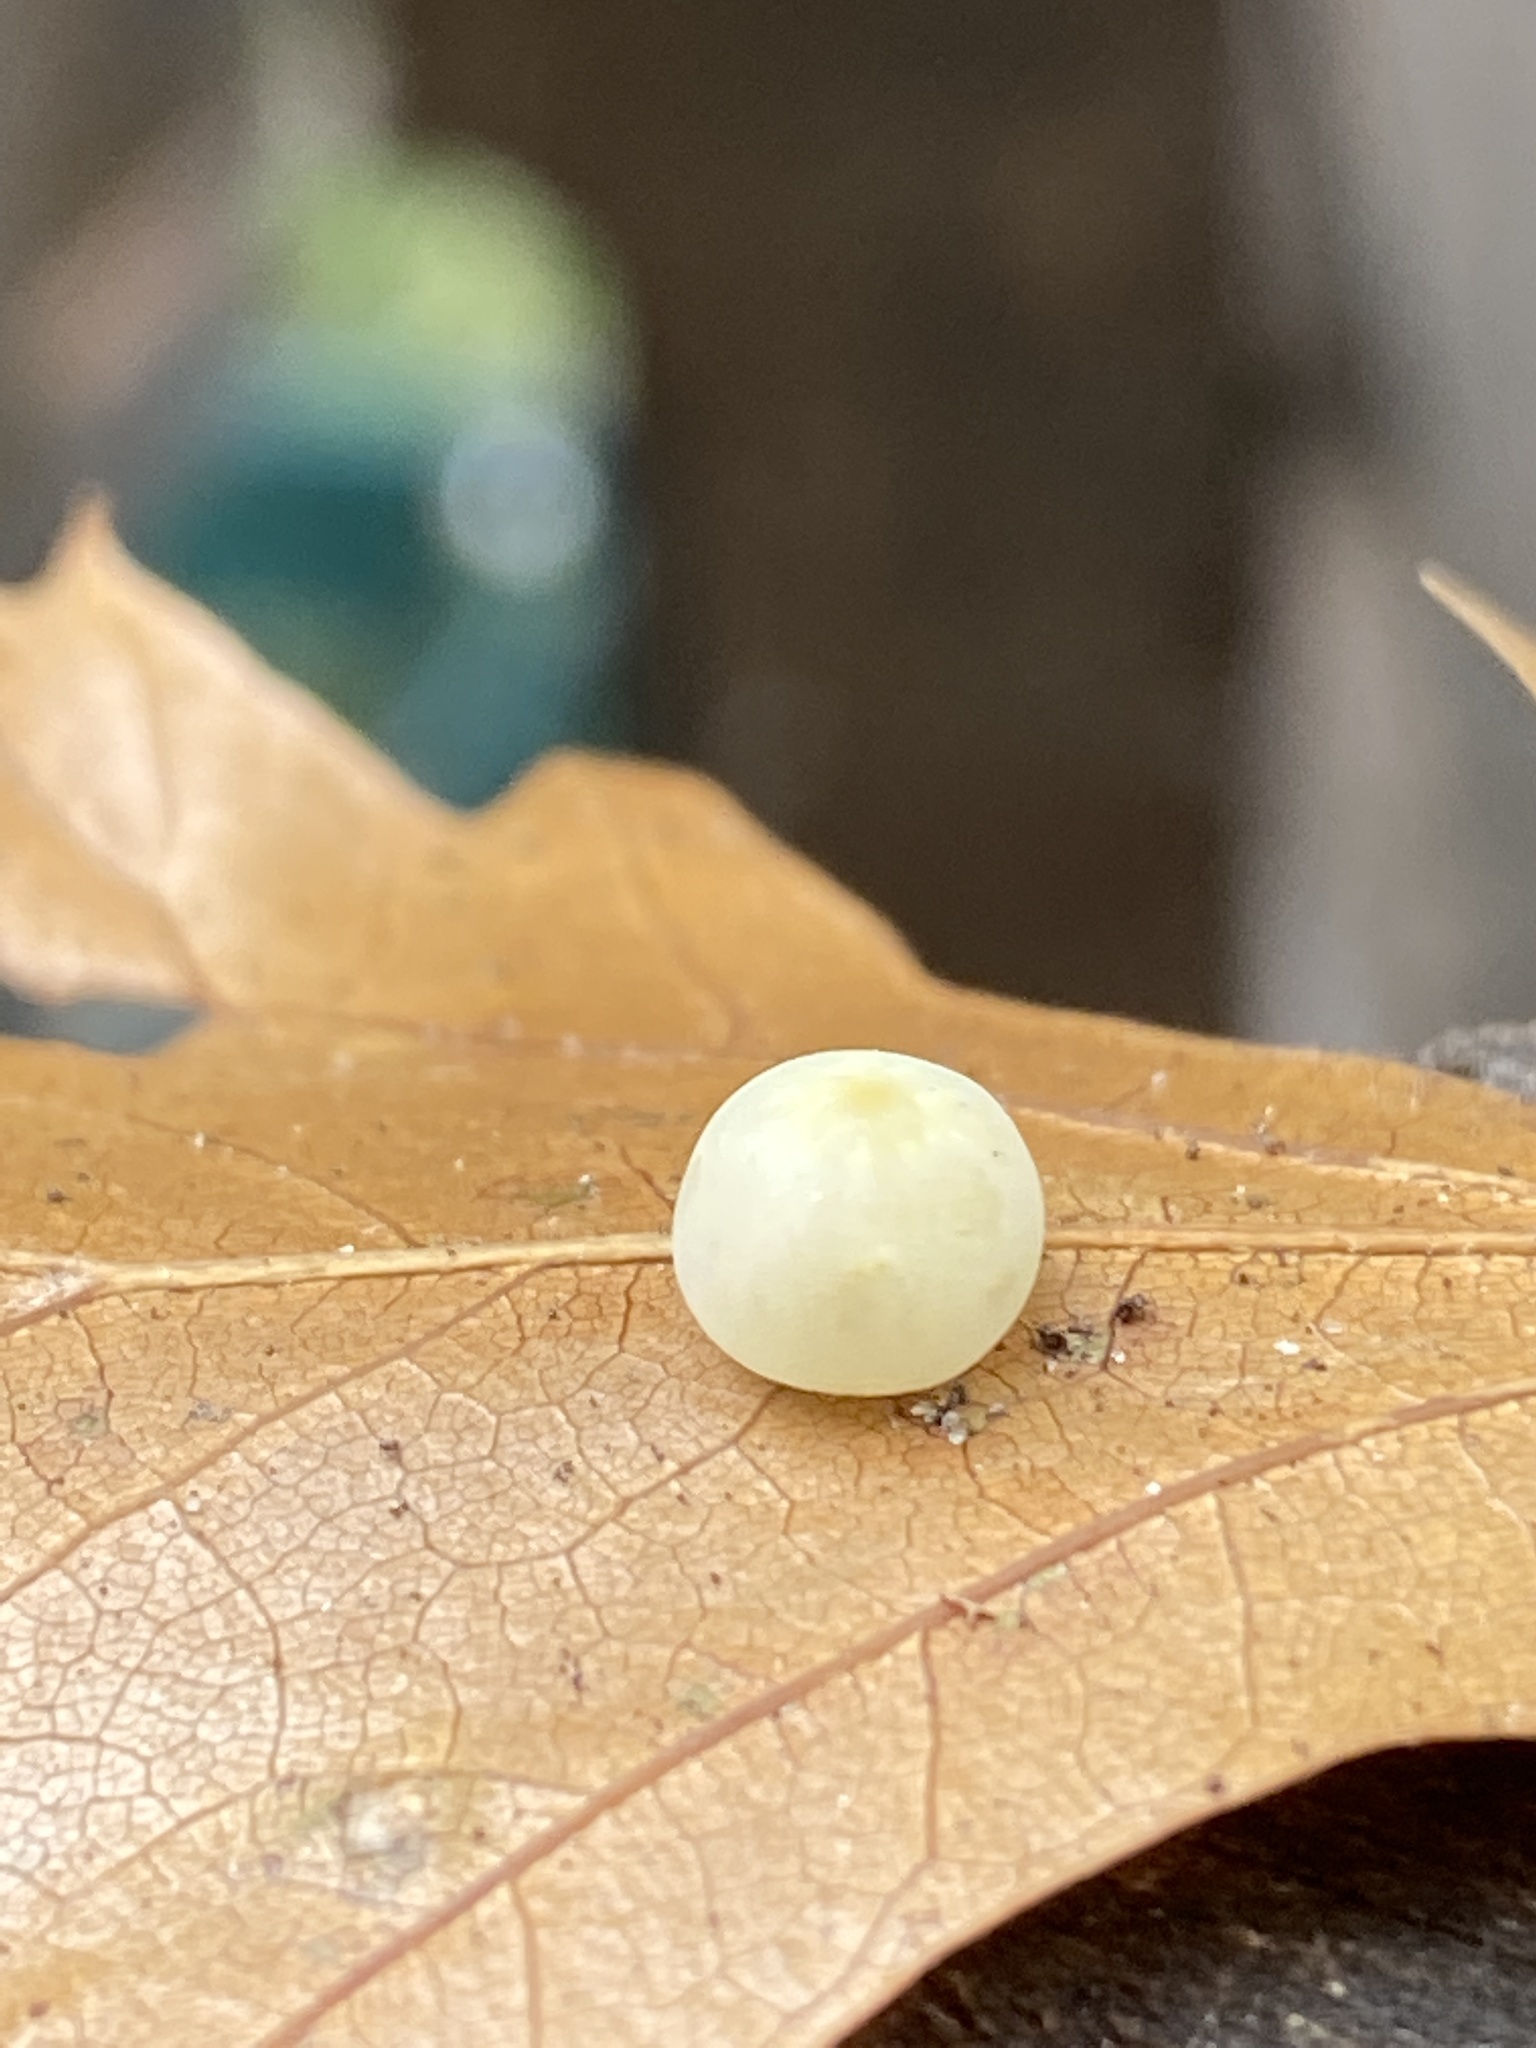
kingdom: Animalia
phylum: Arthropoda
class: Insecta
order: Hymenoptera
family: Cynipidae
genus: Zopheroteras
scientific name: Zopheroteras
